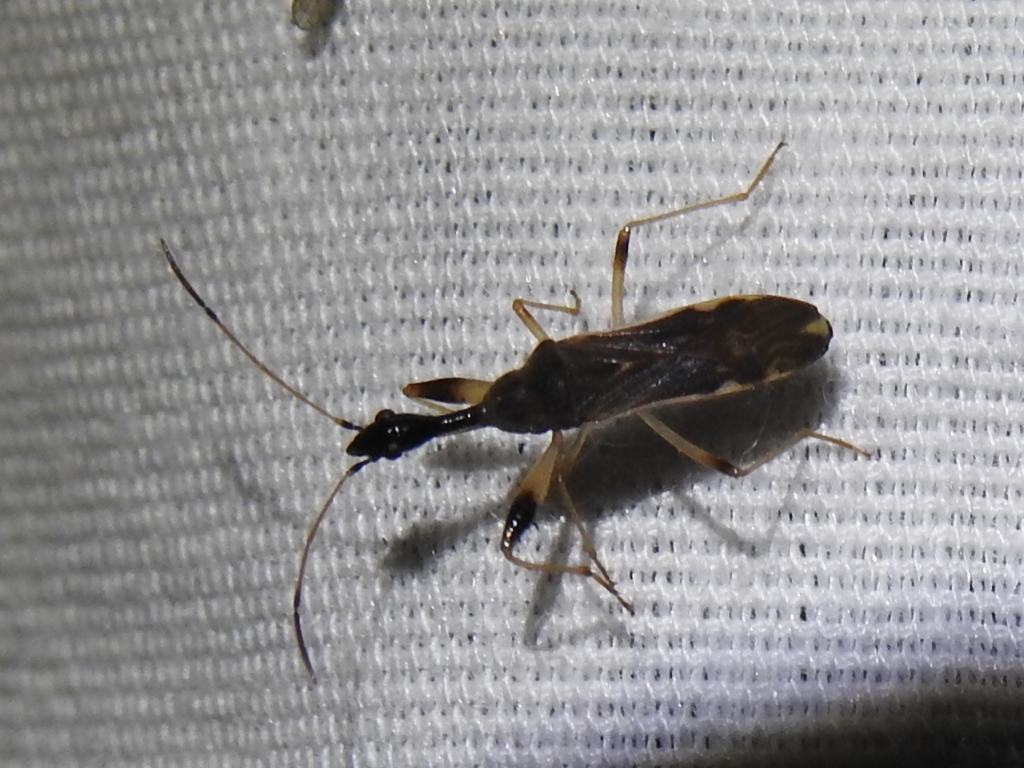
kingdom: Animalia
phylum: Arthropoda
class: Insecta
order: Hemiptera
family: Rhyparochromidae
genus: Myodocha
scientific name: Myodocha serripes
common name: Long-necked seed bug
